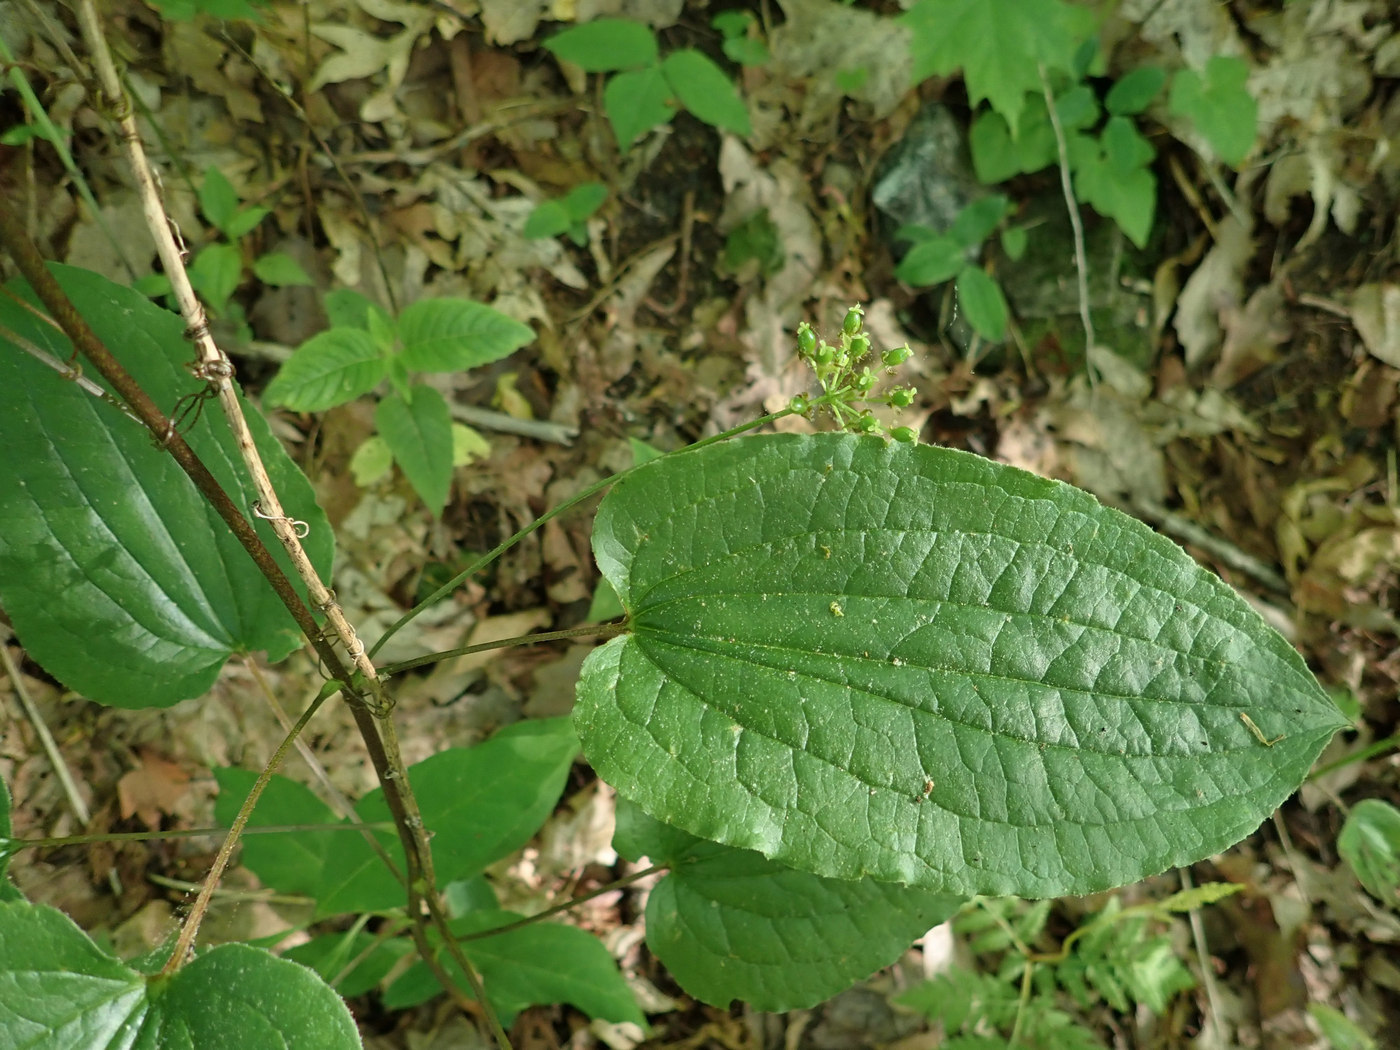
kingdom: Plantae
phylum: Tracheophyta
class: Liliopsida
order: Liliales
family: Smilacaceae
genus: Smilax
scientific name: Smilax pulverulenta
